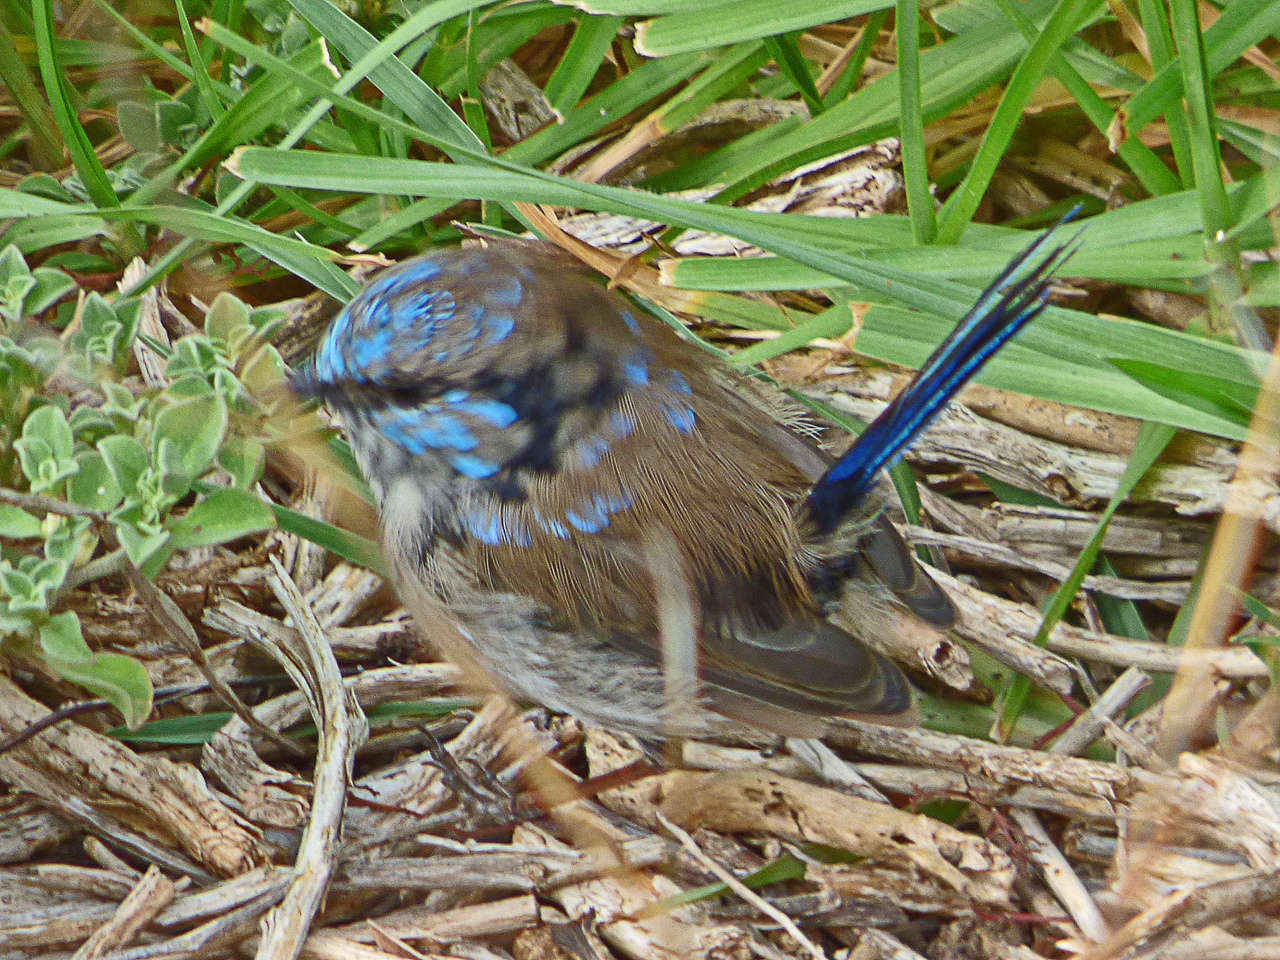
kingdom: Animalia
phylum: Chordata
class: Aves
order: Passeriformes
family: Maluridae
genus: Malurus
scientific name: Malurus cyaneus
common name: Superb fairywren
